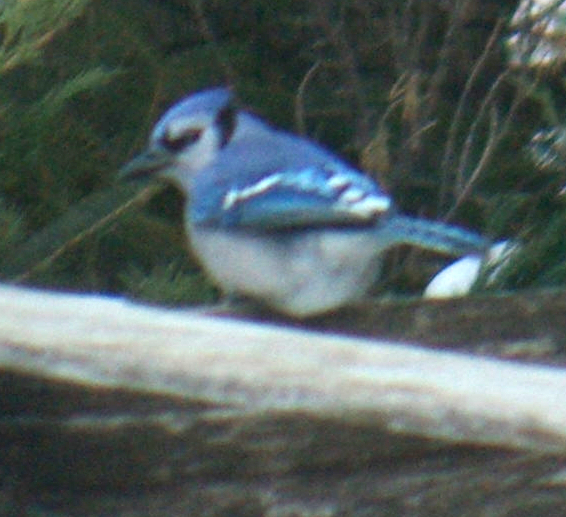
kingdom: Animalia
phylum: Chordata
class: Aves
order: Passeriformes
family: Corvidae
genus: Cyanocitta
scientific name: Cyanocitta cristata
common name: Blue jay
